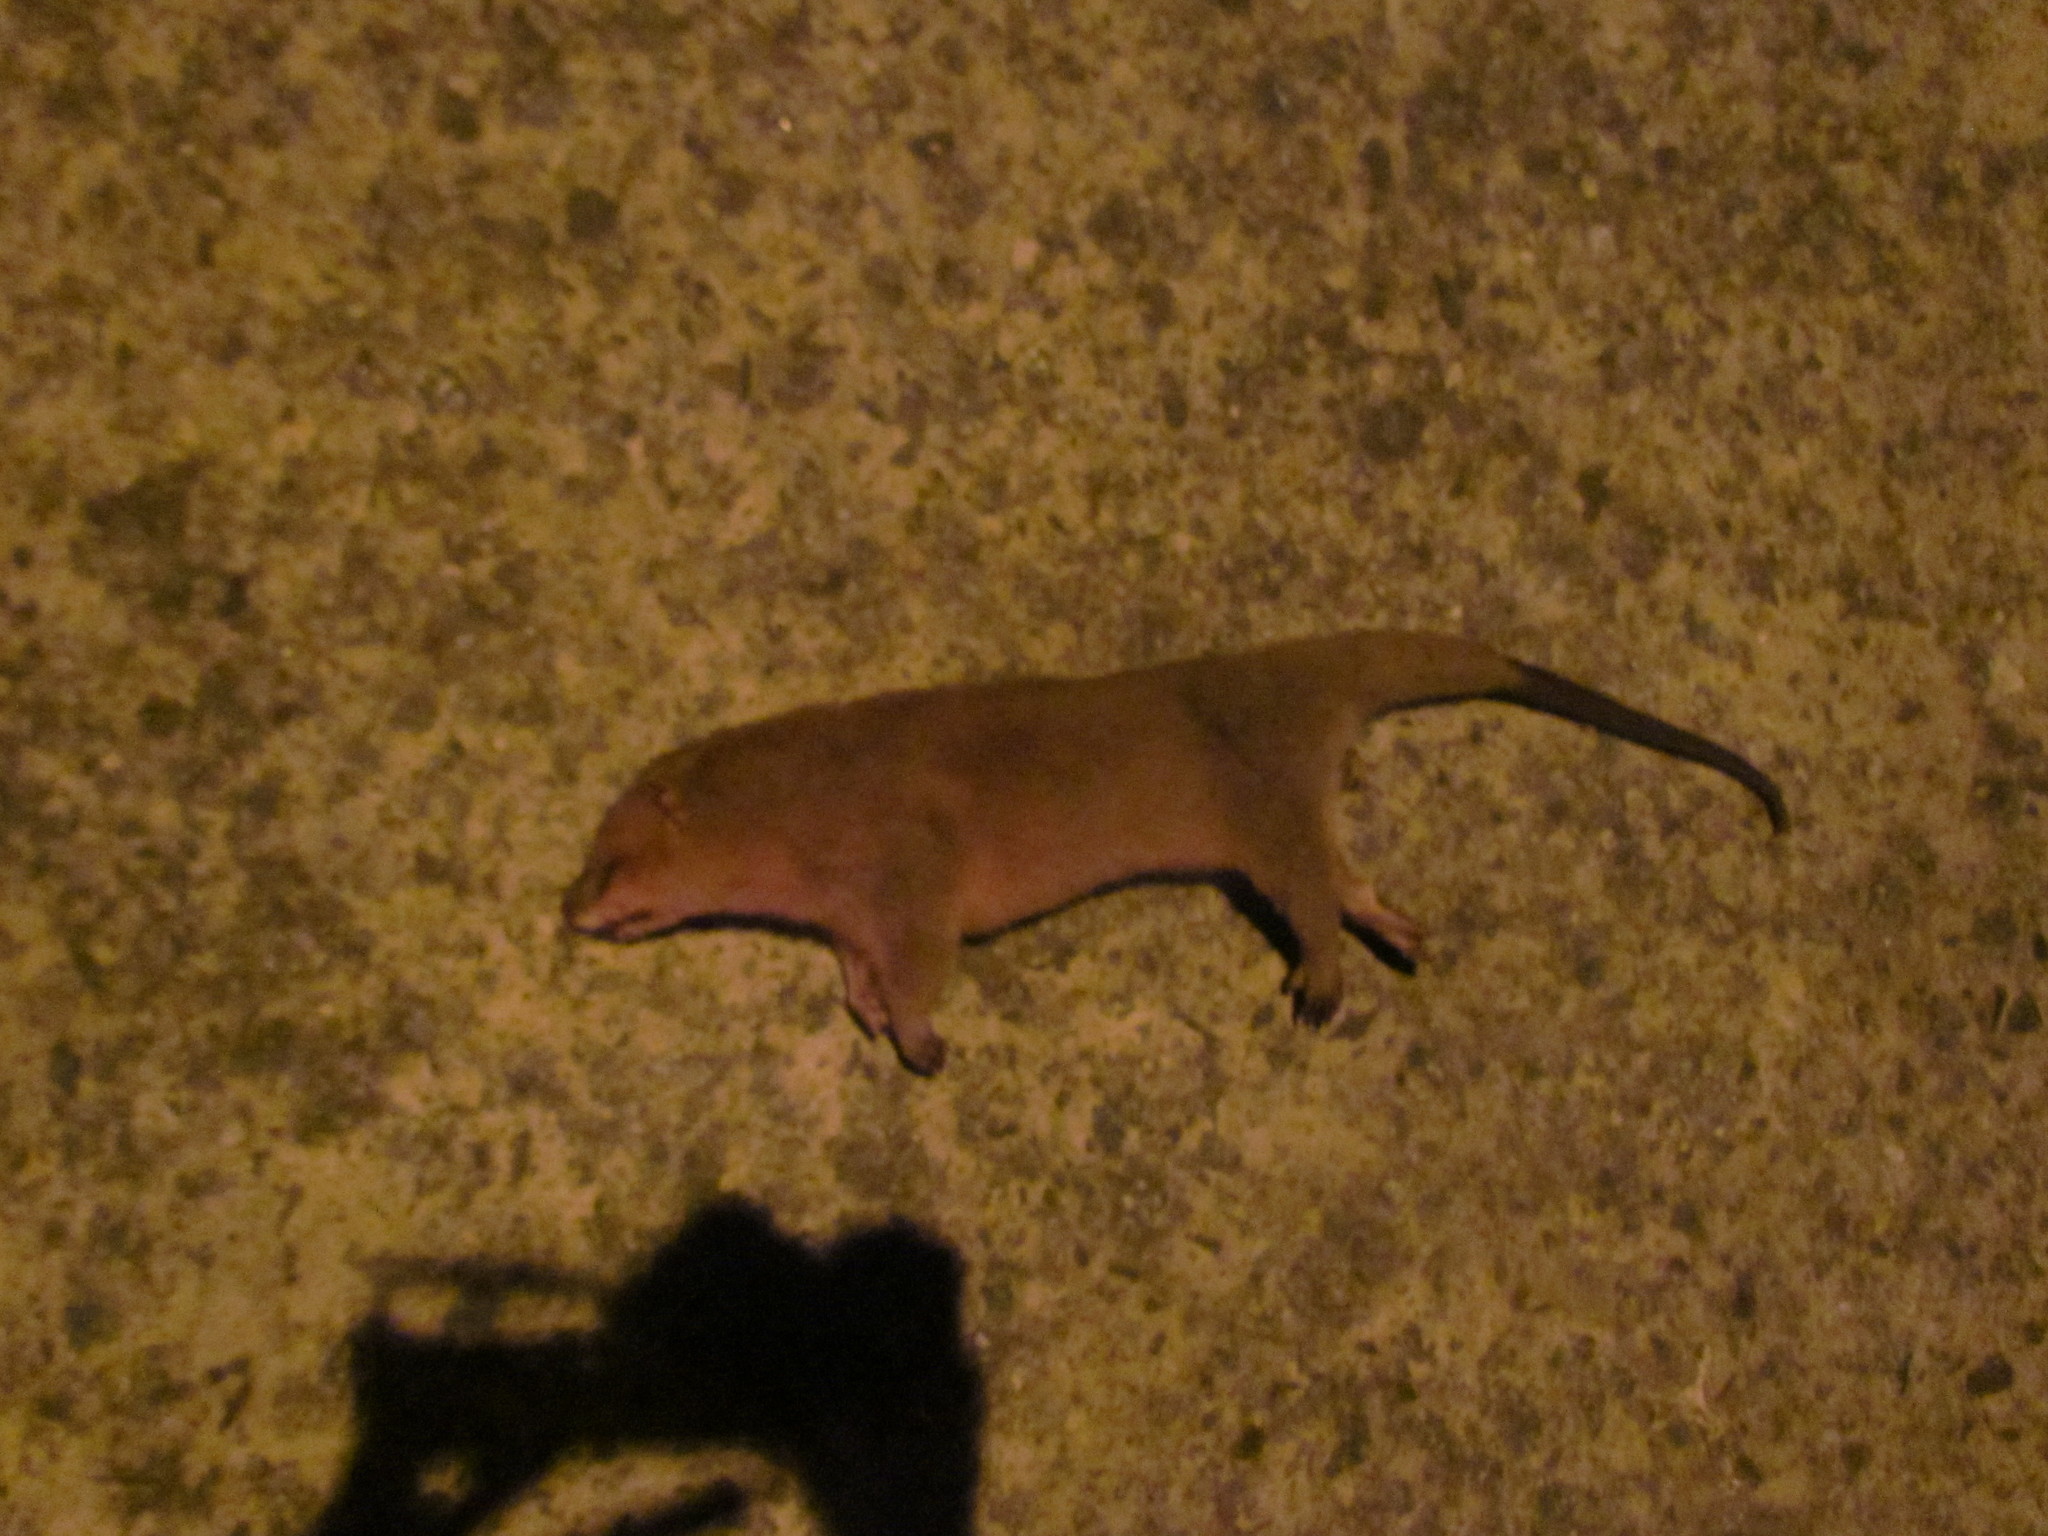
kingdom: Animalia
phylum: Chordata
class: Mammalia
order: Didelphimorphia
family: Didelphidae
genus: Lutreolina
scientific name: Lutreolina crassicaudata
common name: Lutrine opossum
